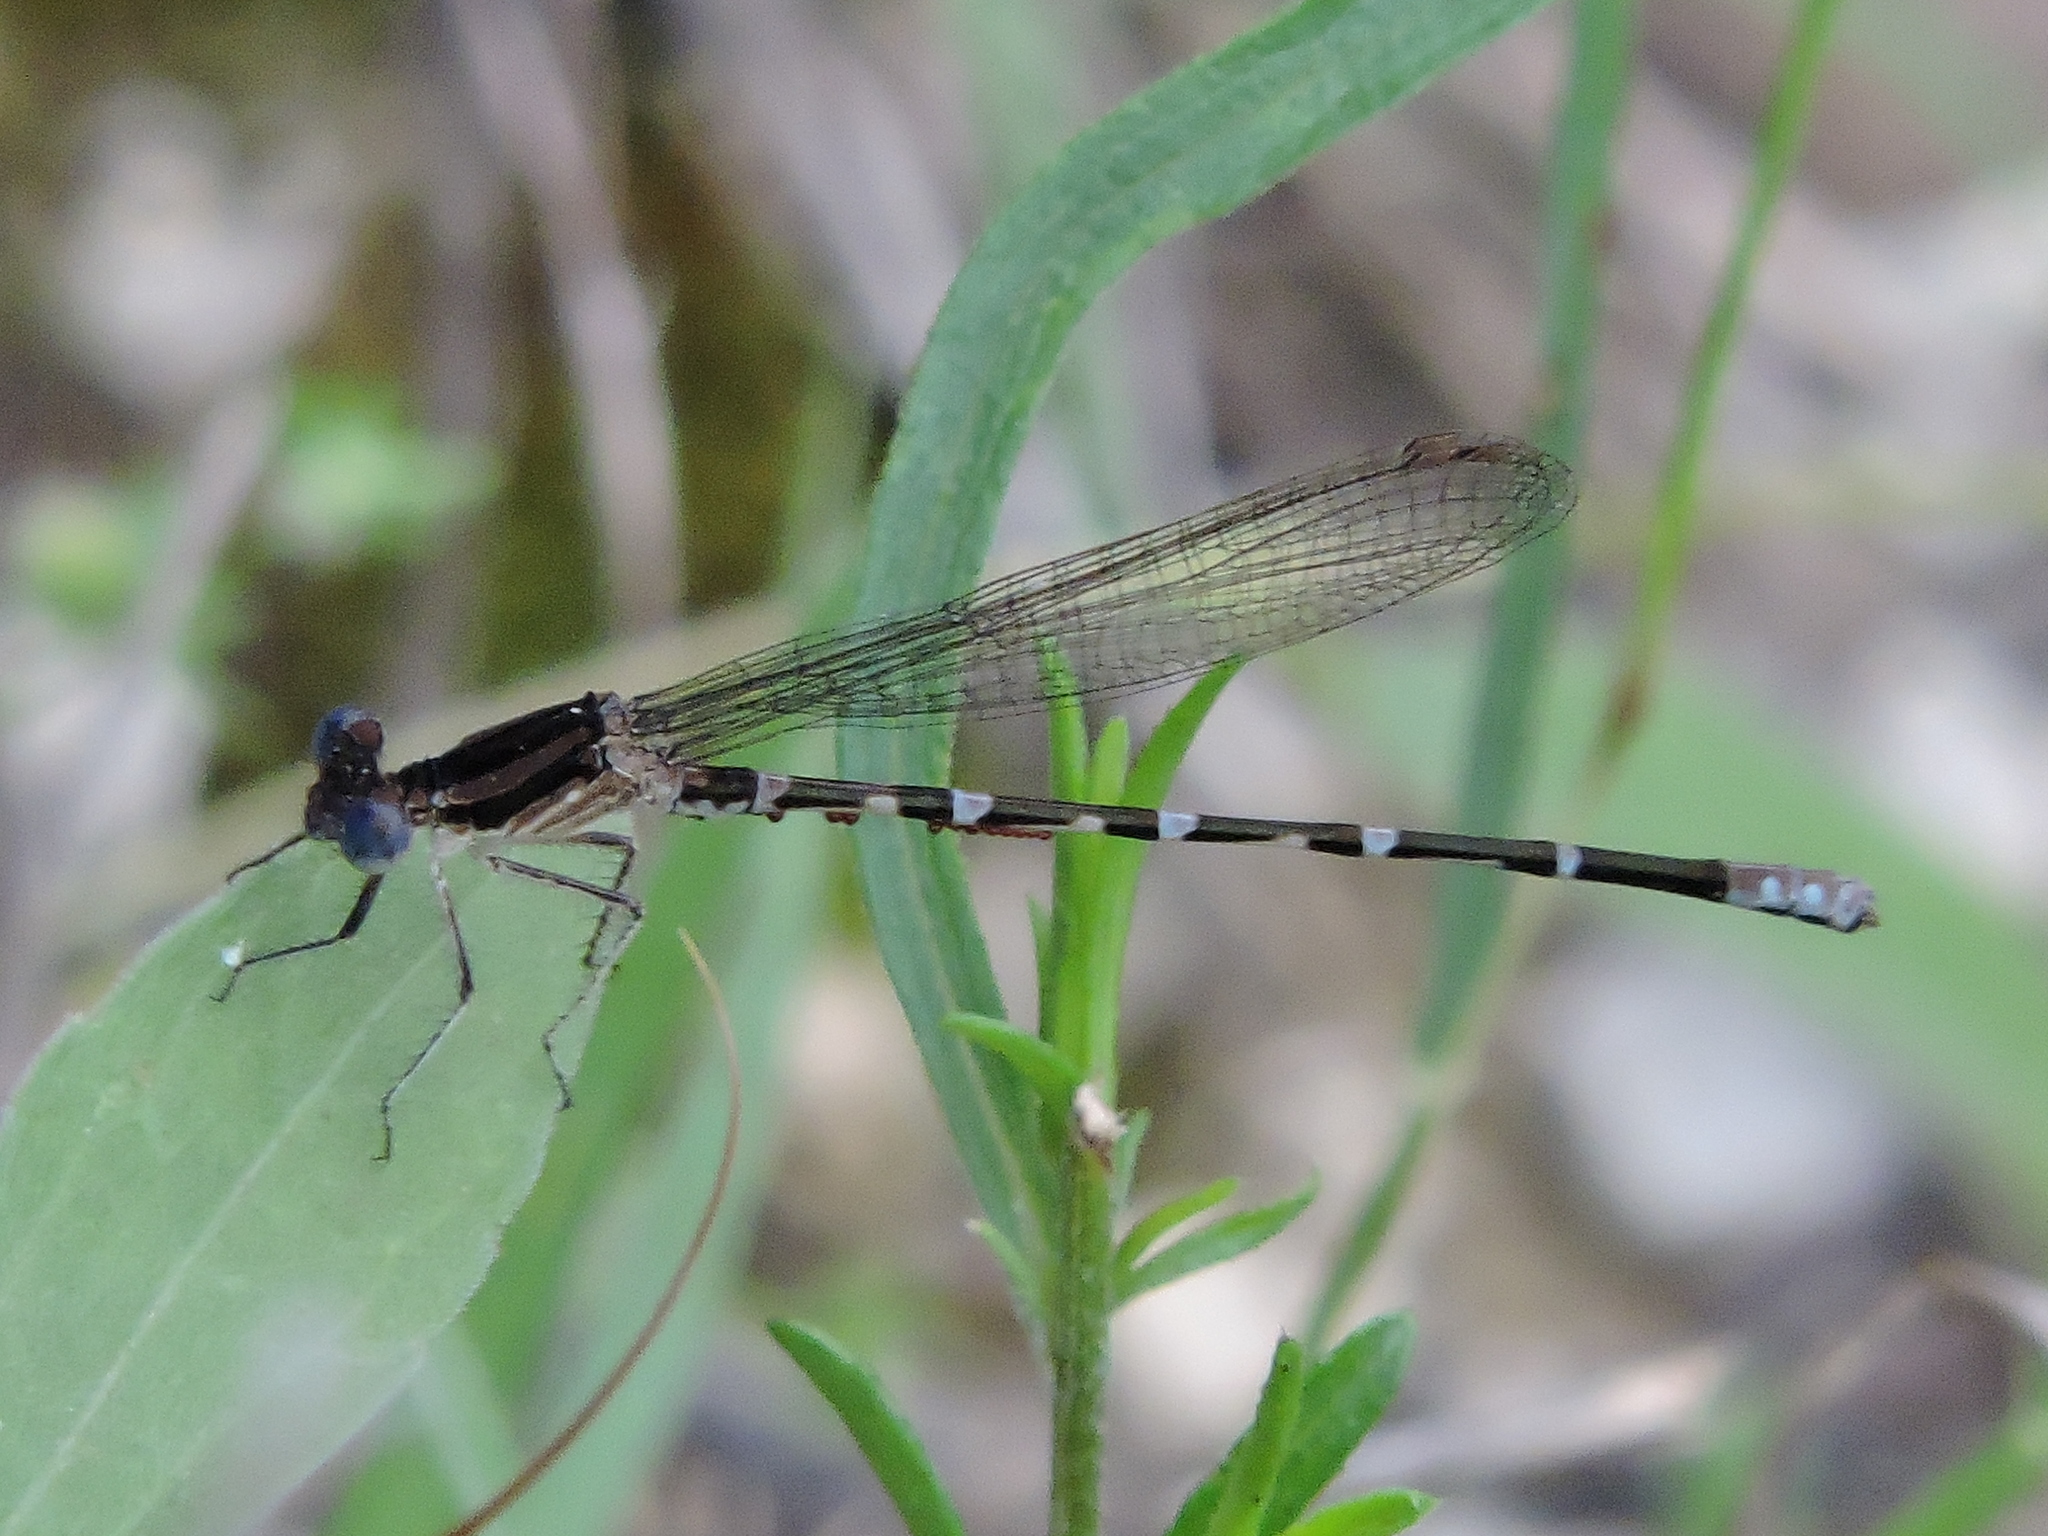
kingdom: Animalia
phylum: Arthropoda
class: Insecta
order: Odonata
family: Coenagrionidae
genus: Argia
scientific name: Argia sedula
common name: Blue-ringed dancer
